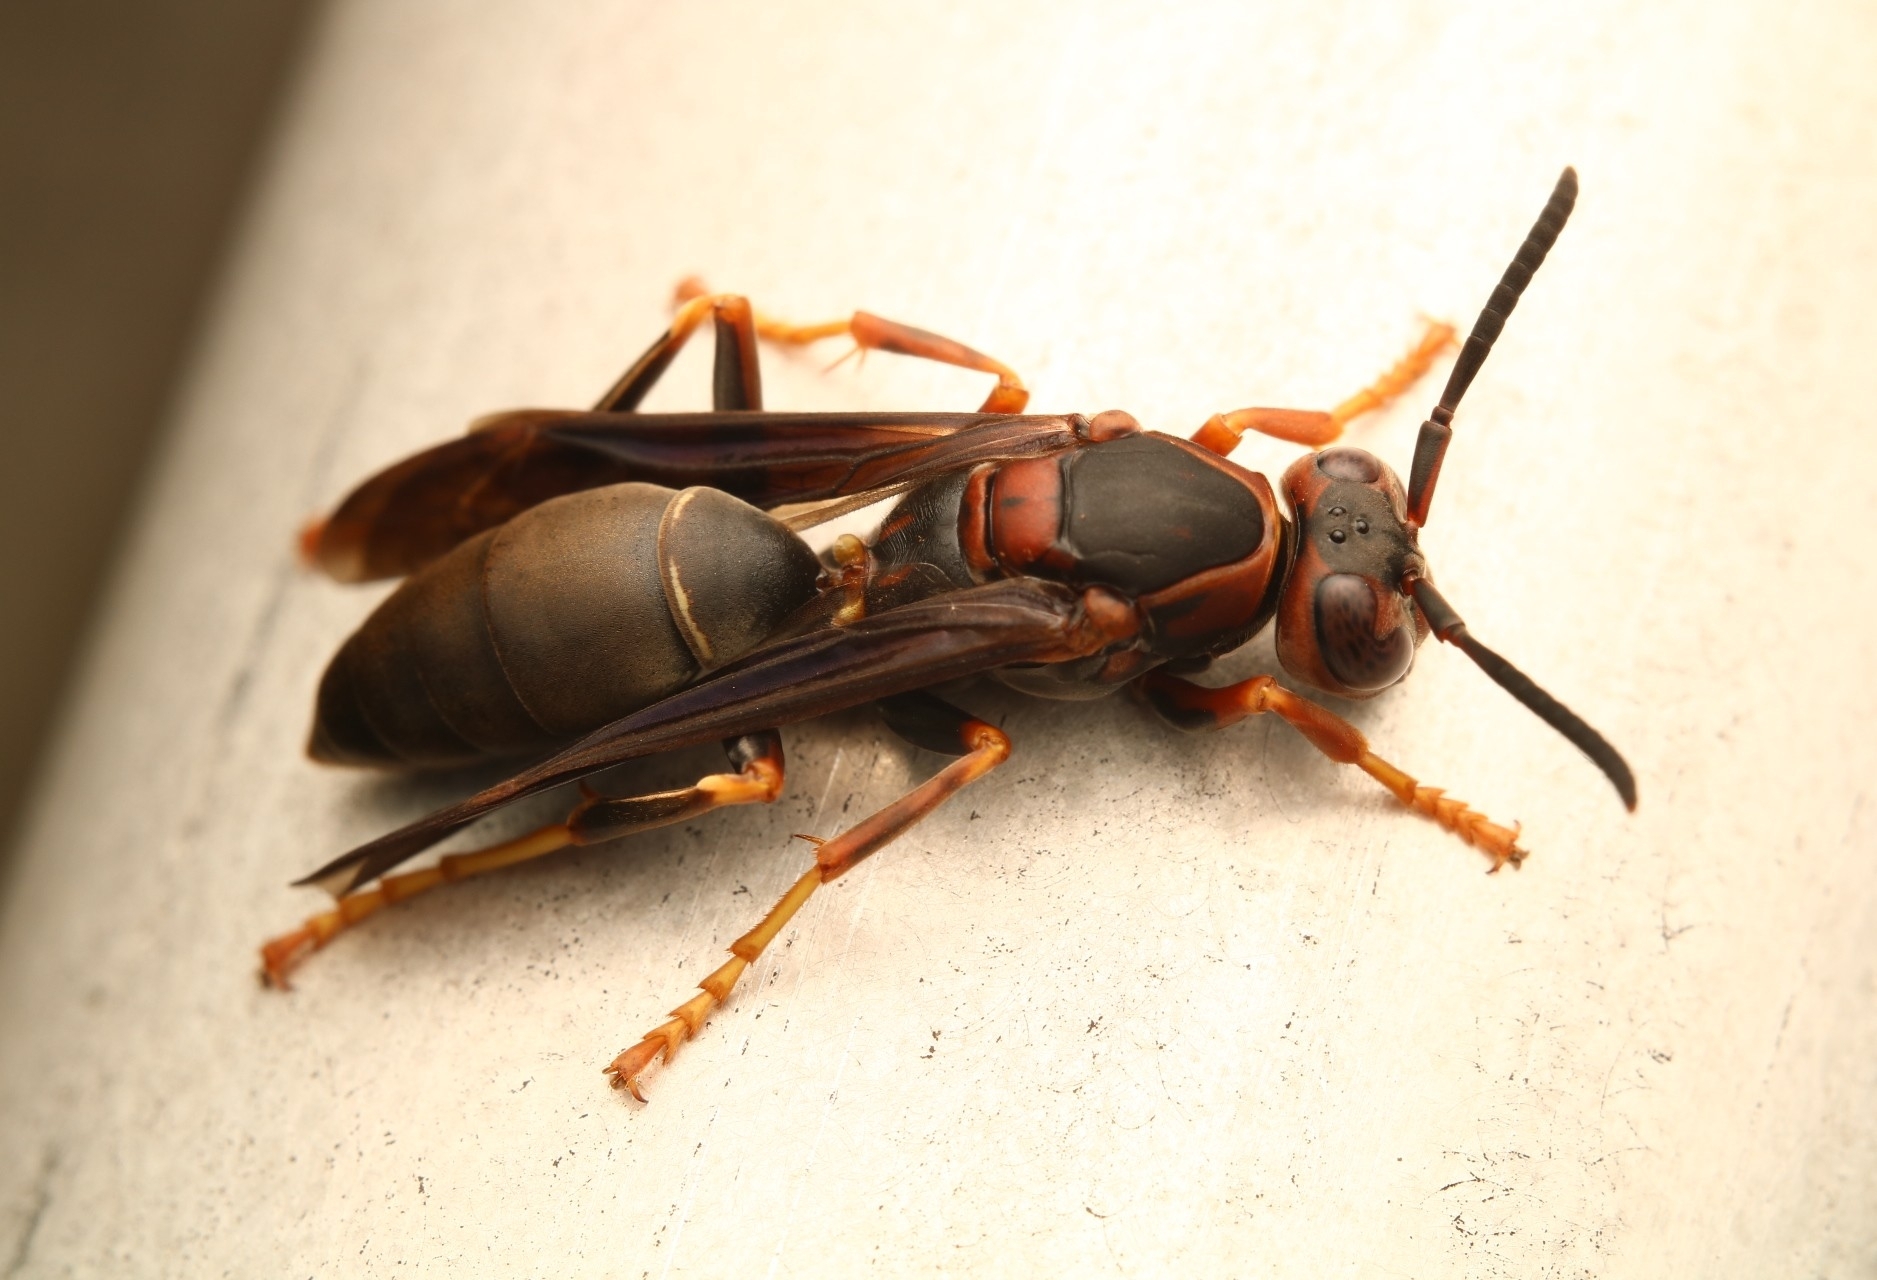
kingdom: Animalia
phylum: Arthropoda
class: Insecta
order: Hymenoptera
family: Eumenidae
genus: Polistes
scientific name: Polistes metricus
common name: Metric paper wasp
